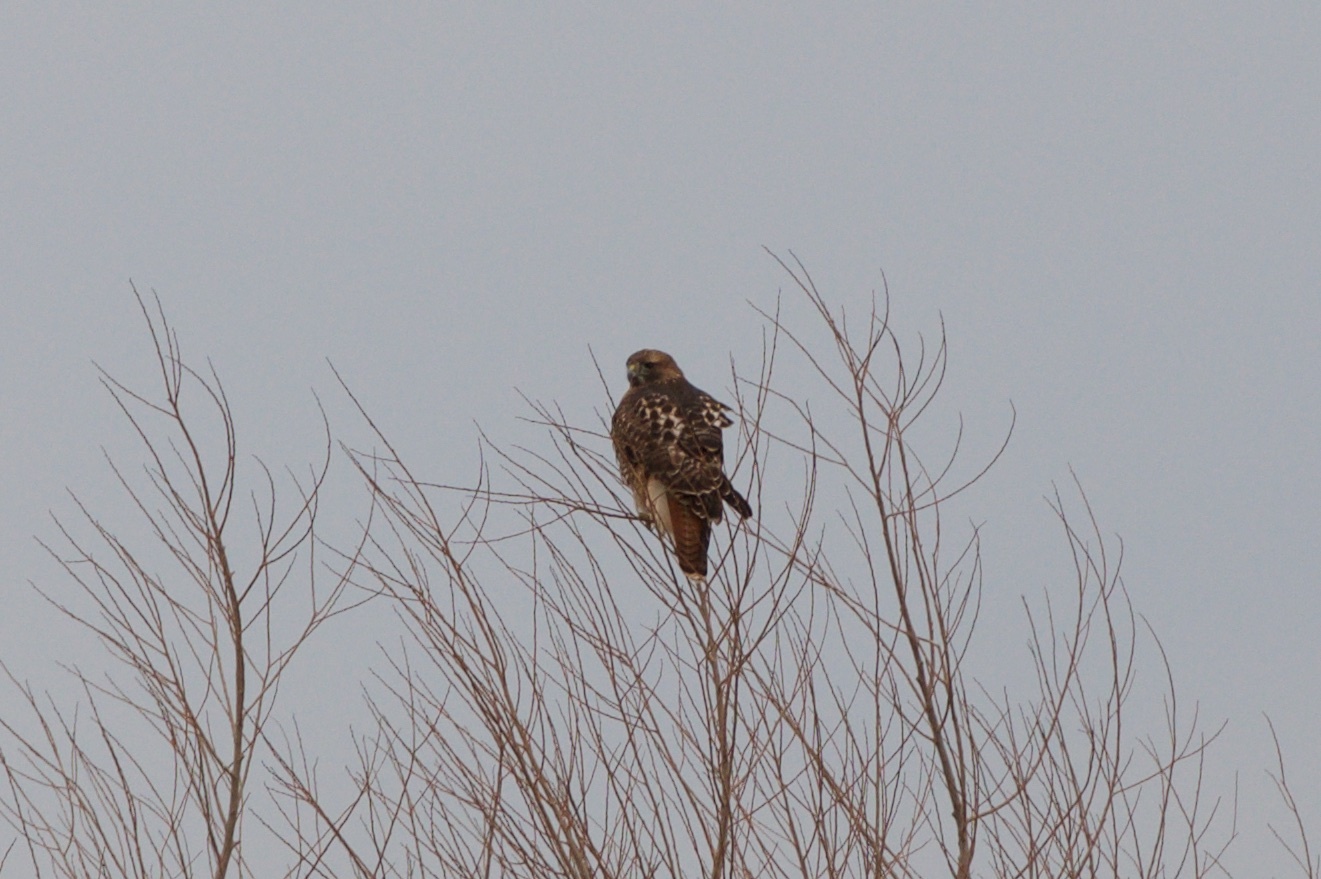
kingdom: Animalia
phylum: Chordata
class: Aves
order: Accipitriformes
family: Accipitridae
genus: Buteo
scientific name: Buteo jamaicensis
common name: Red-tailed hawk
